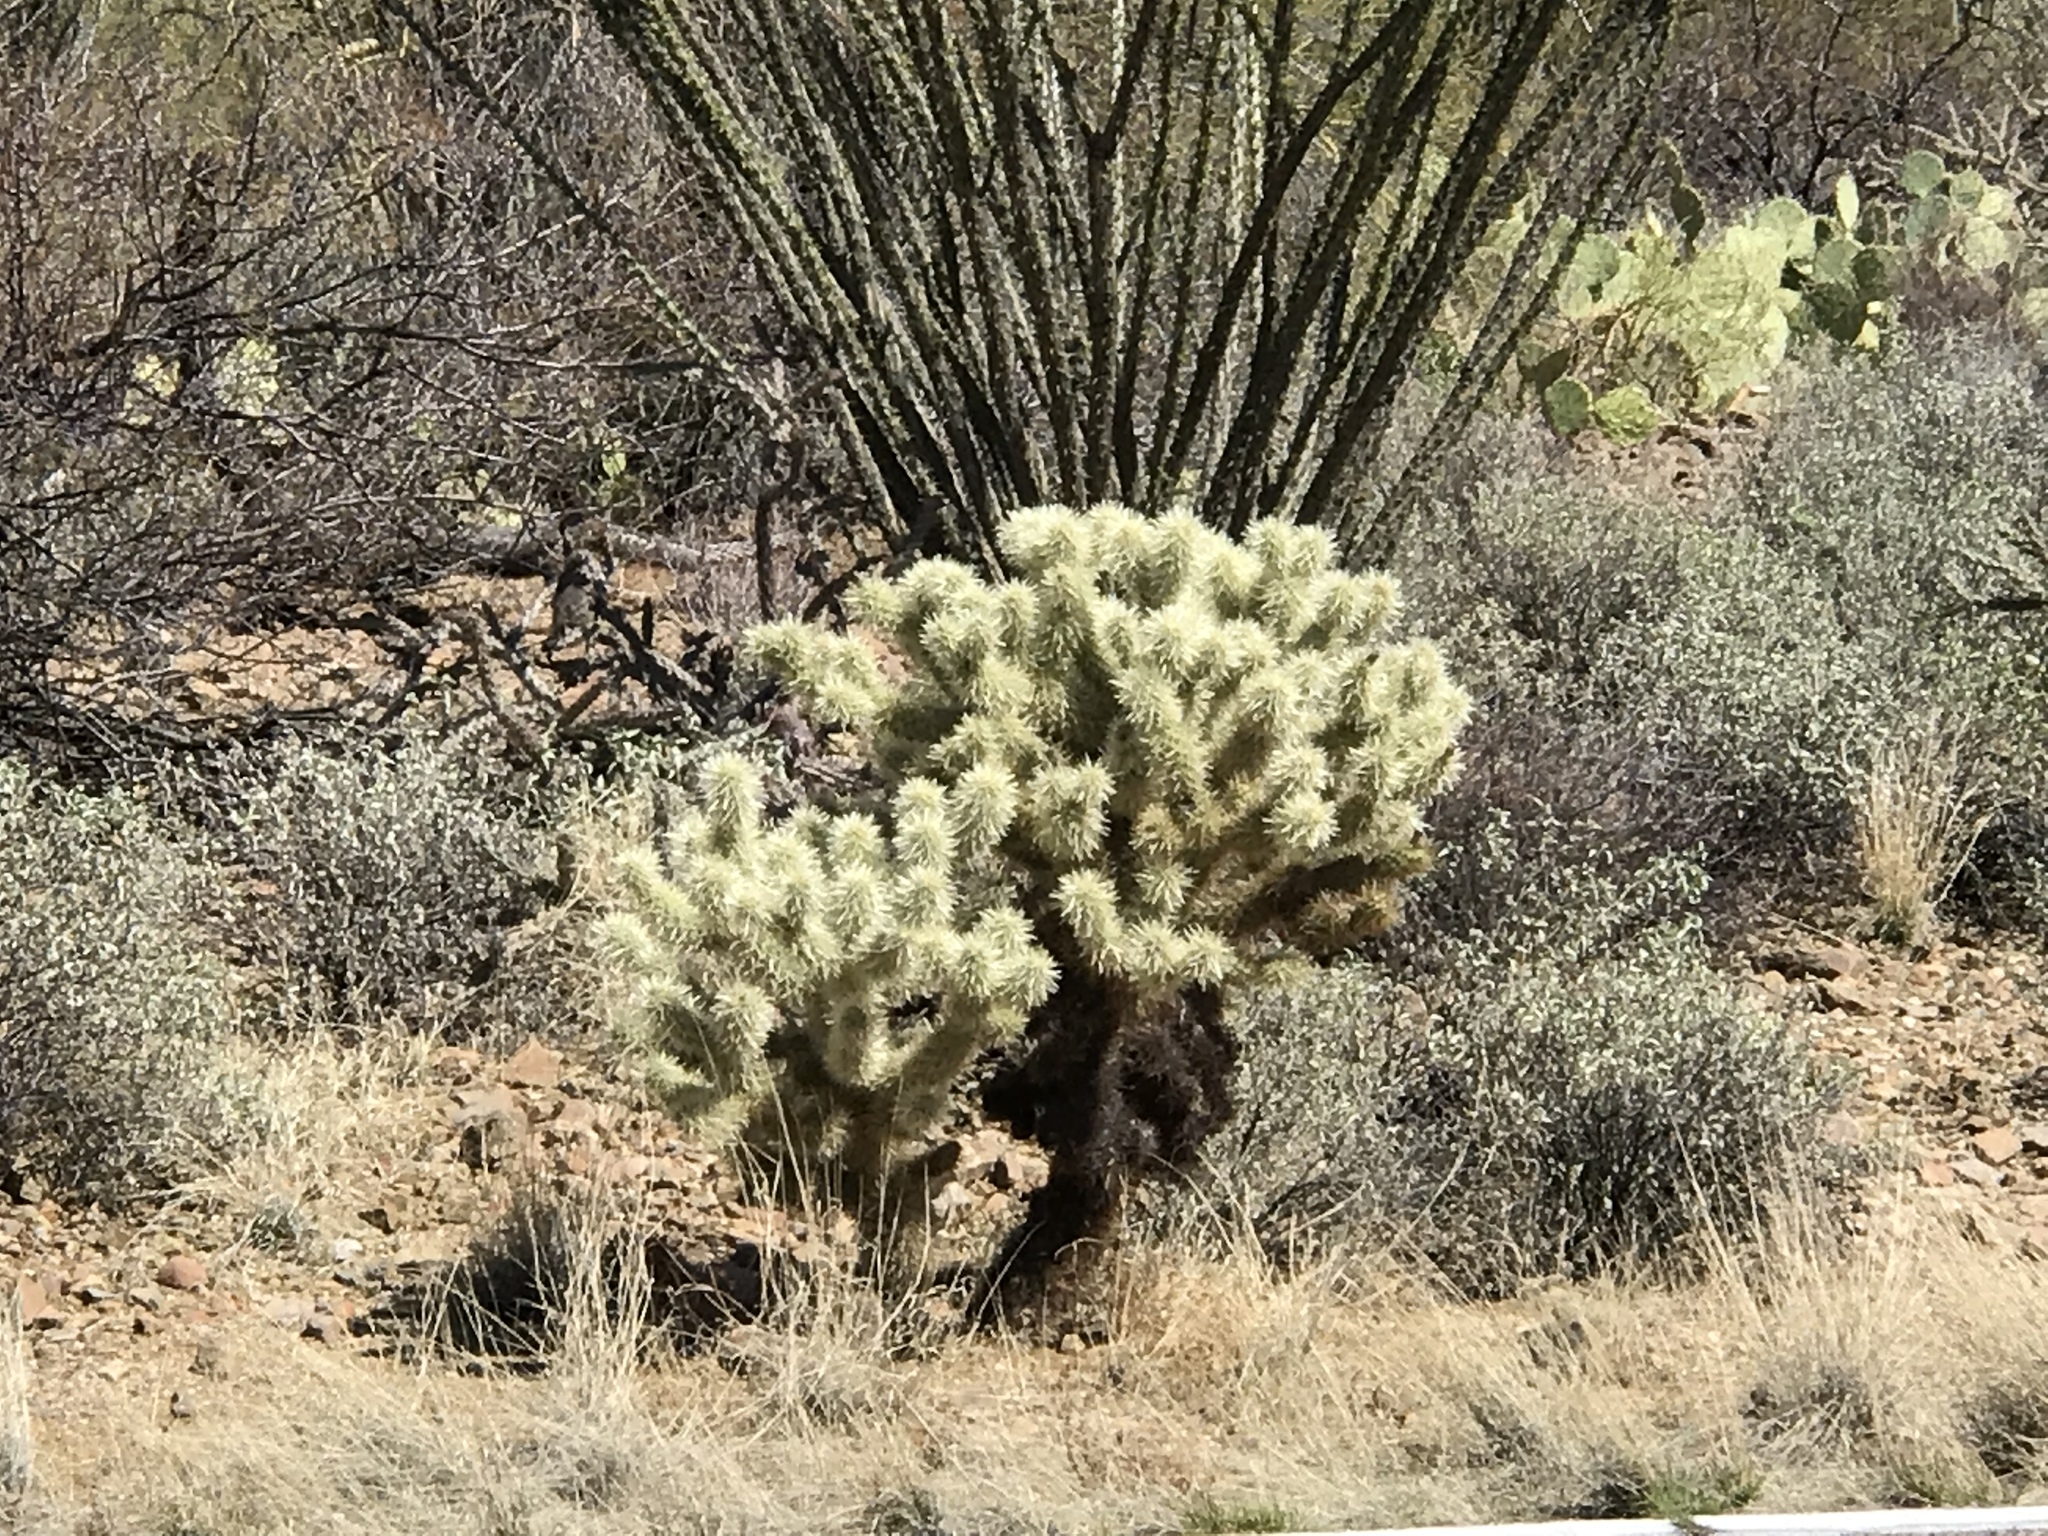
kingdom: Plantae
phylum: Tracheophyta
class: Magnoliopsida
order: Caryophyllales
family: Cactaceae
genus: Cylindropuntia
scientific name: Cylindropuntia fosbergii
